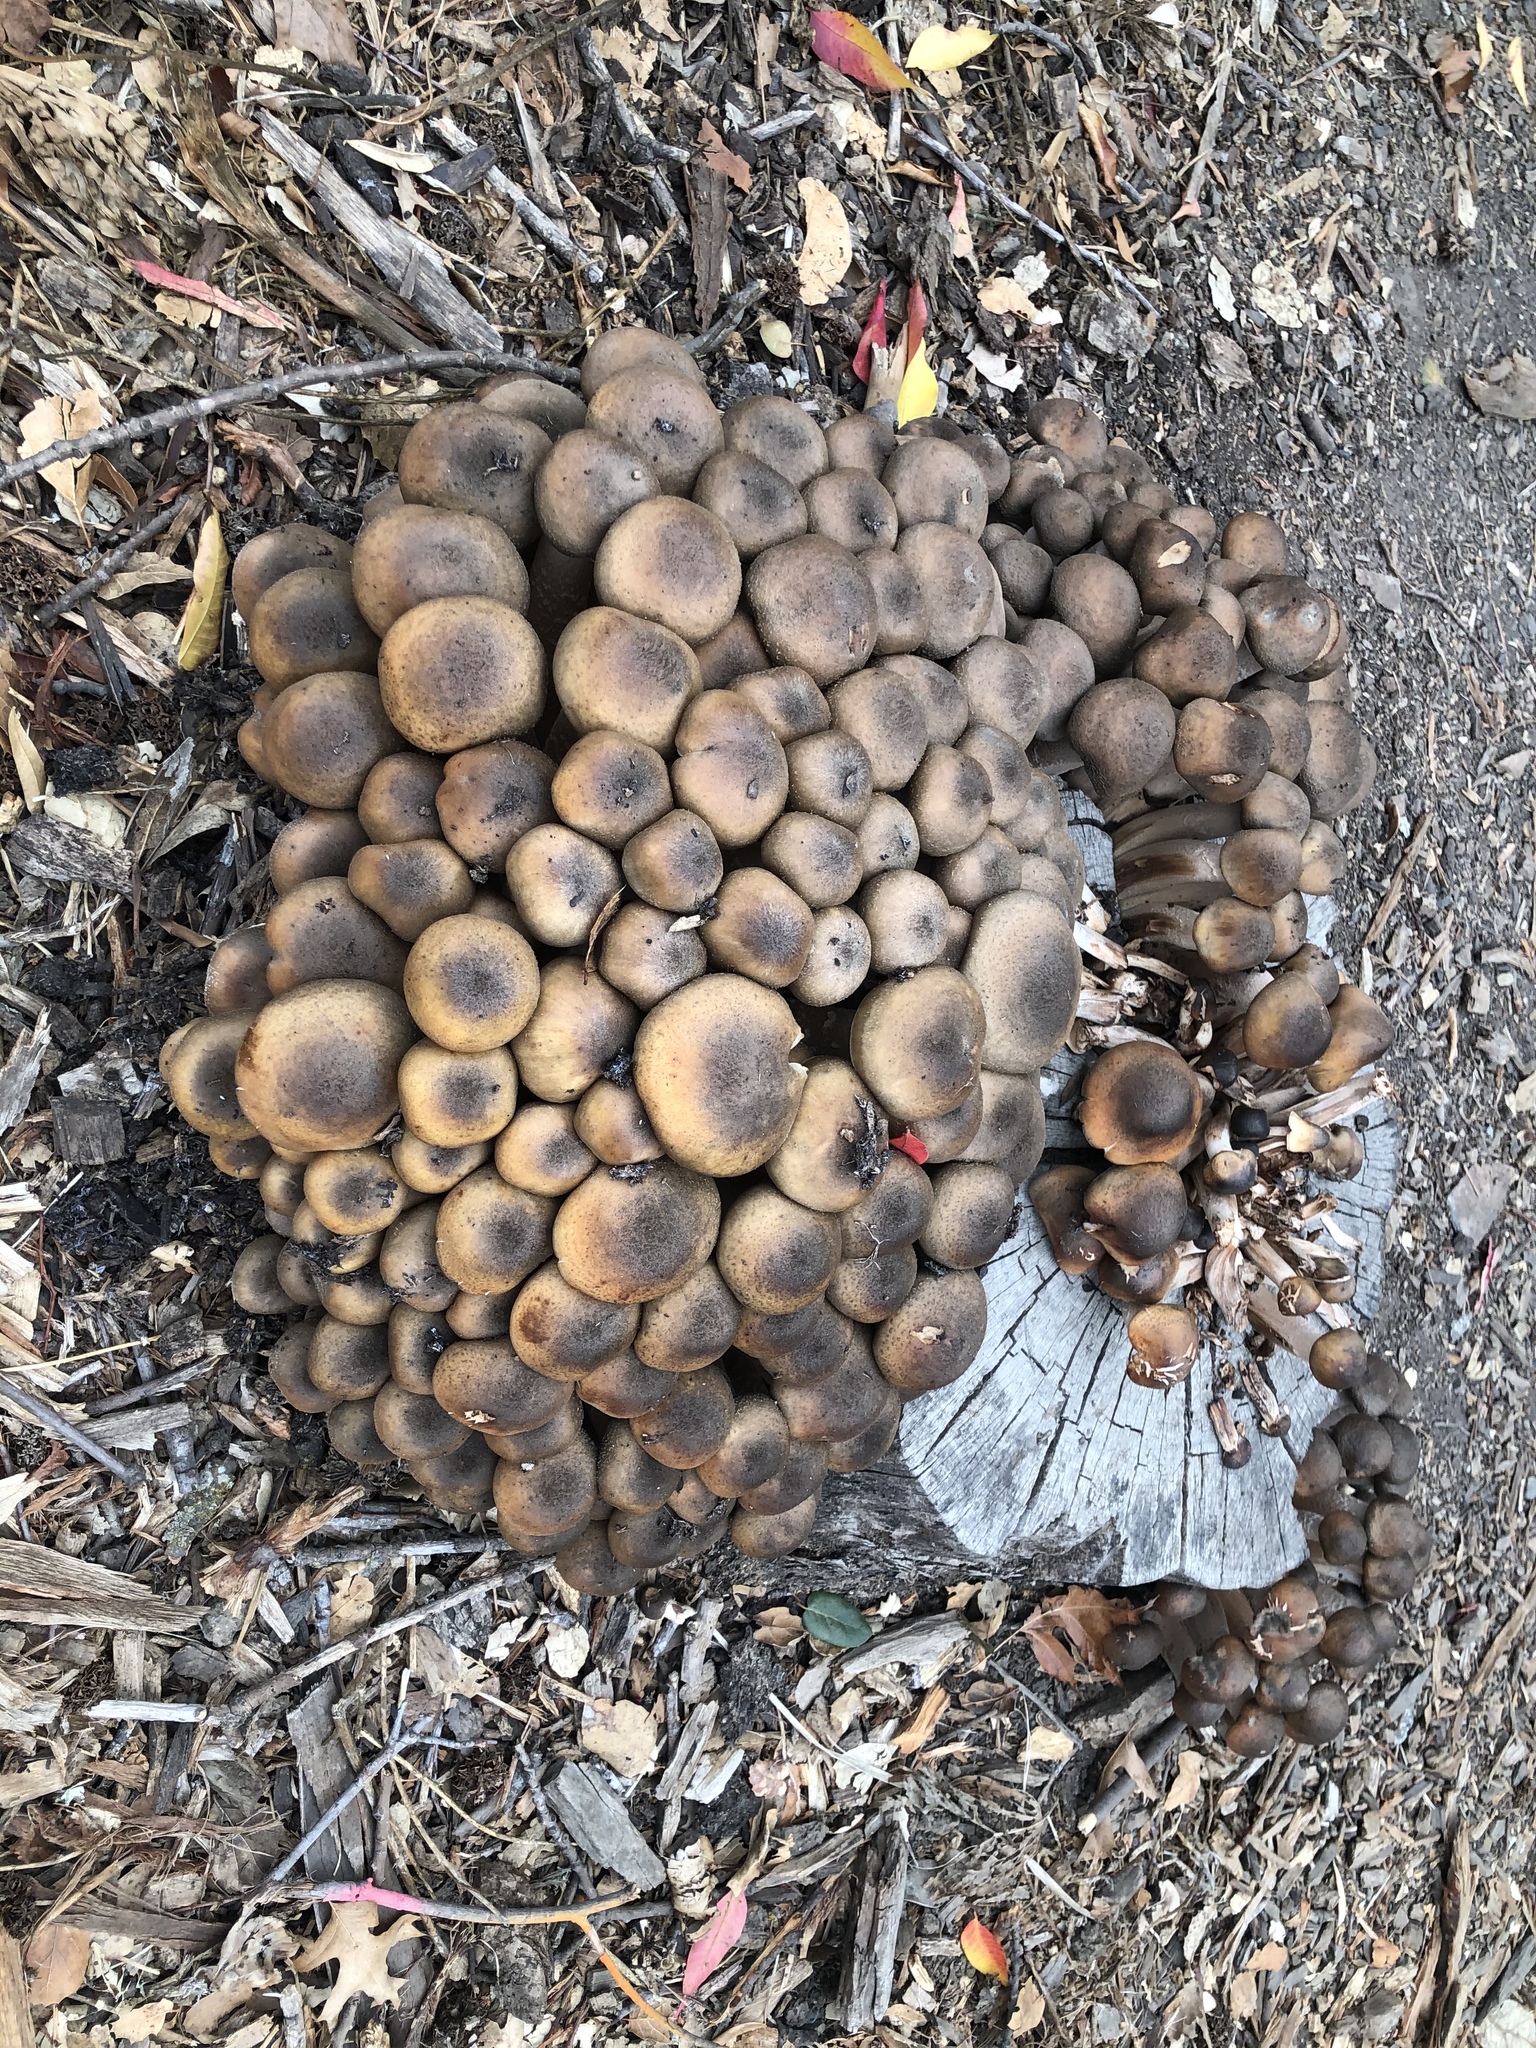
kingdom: Fungi
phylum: Basidiomycota
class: Agaricomycetes
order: Agaricales
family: Physalacriaceae
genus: Armillaria
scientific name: Armillaria mellea
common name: Honey fungus
